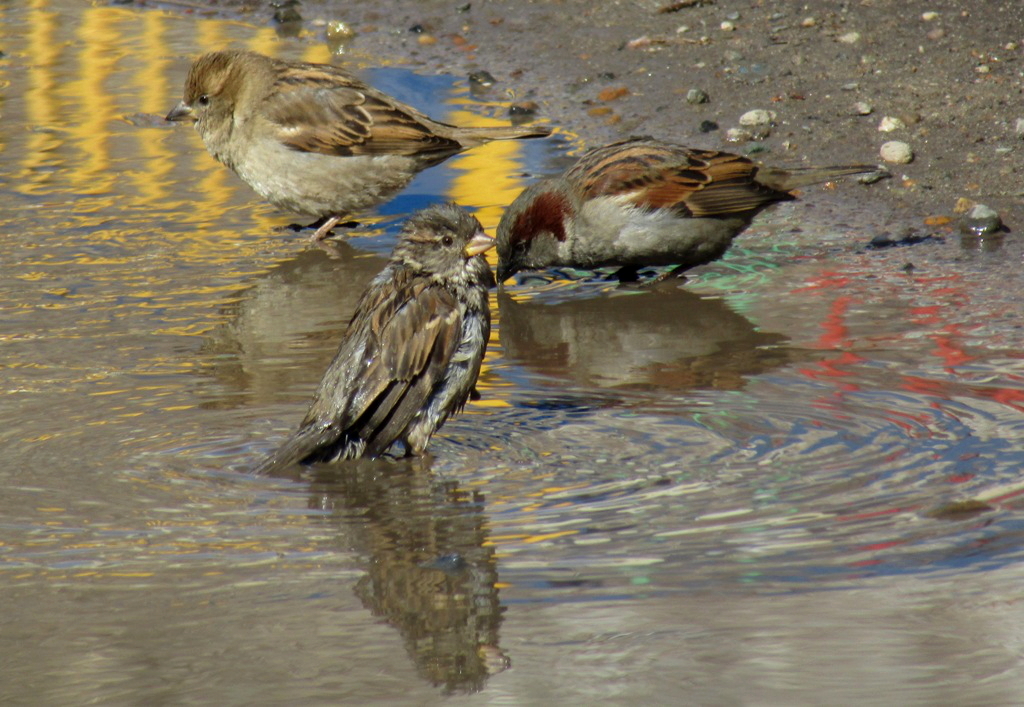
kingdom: Animalia
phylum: Chordata
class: Aves
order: Passeriformes
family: Passeridae
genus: Passer
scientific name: Passer domesticus
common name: House sparrow
